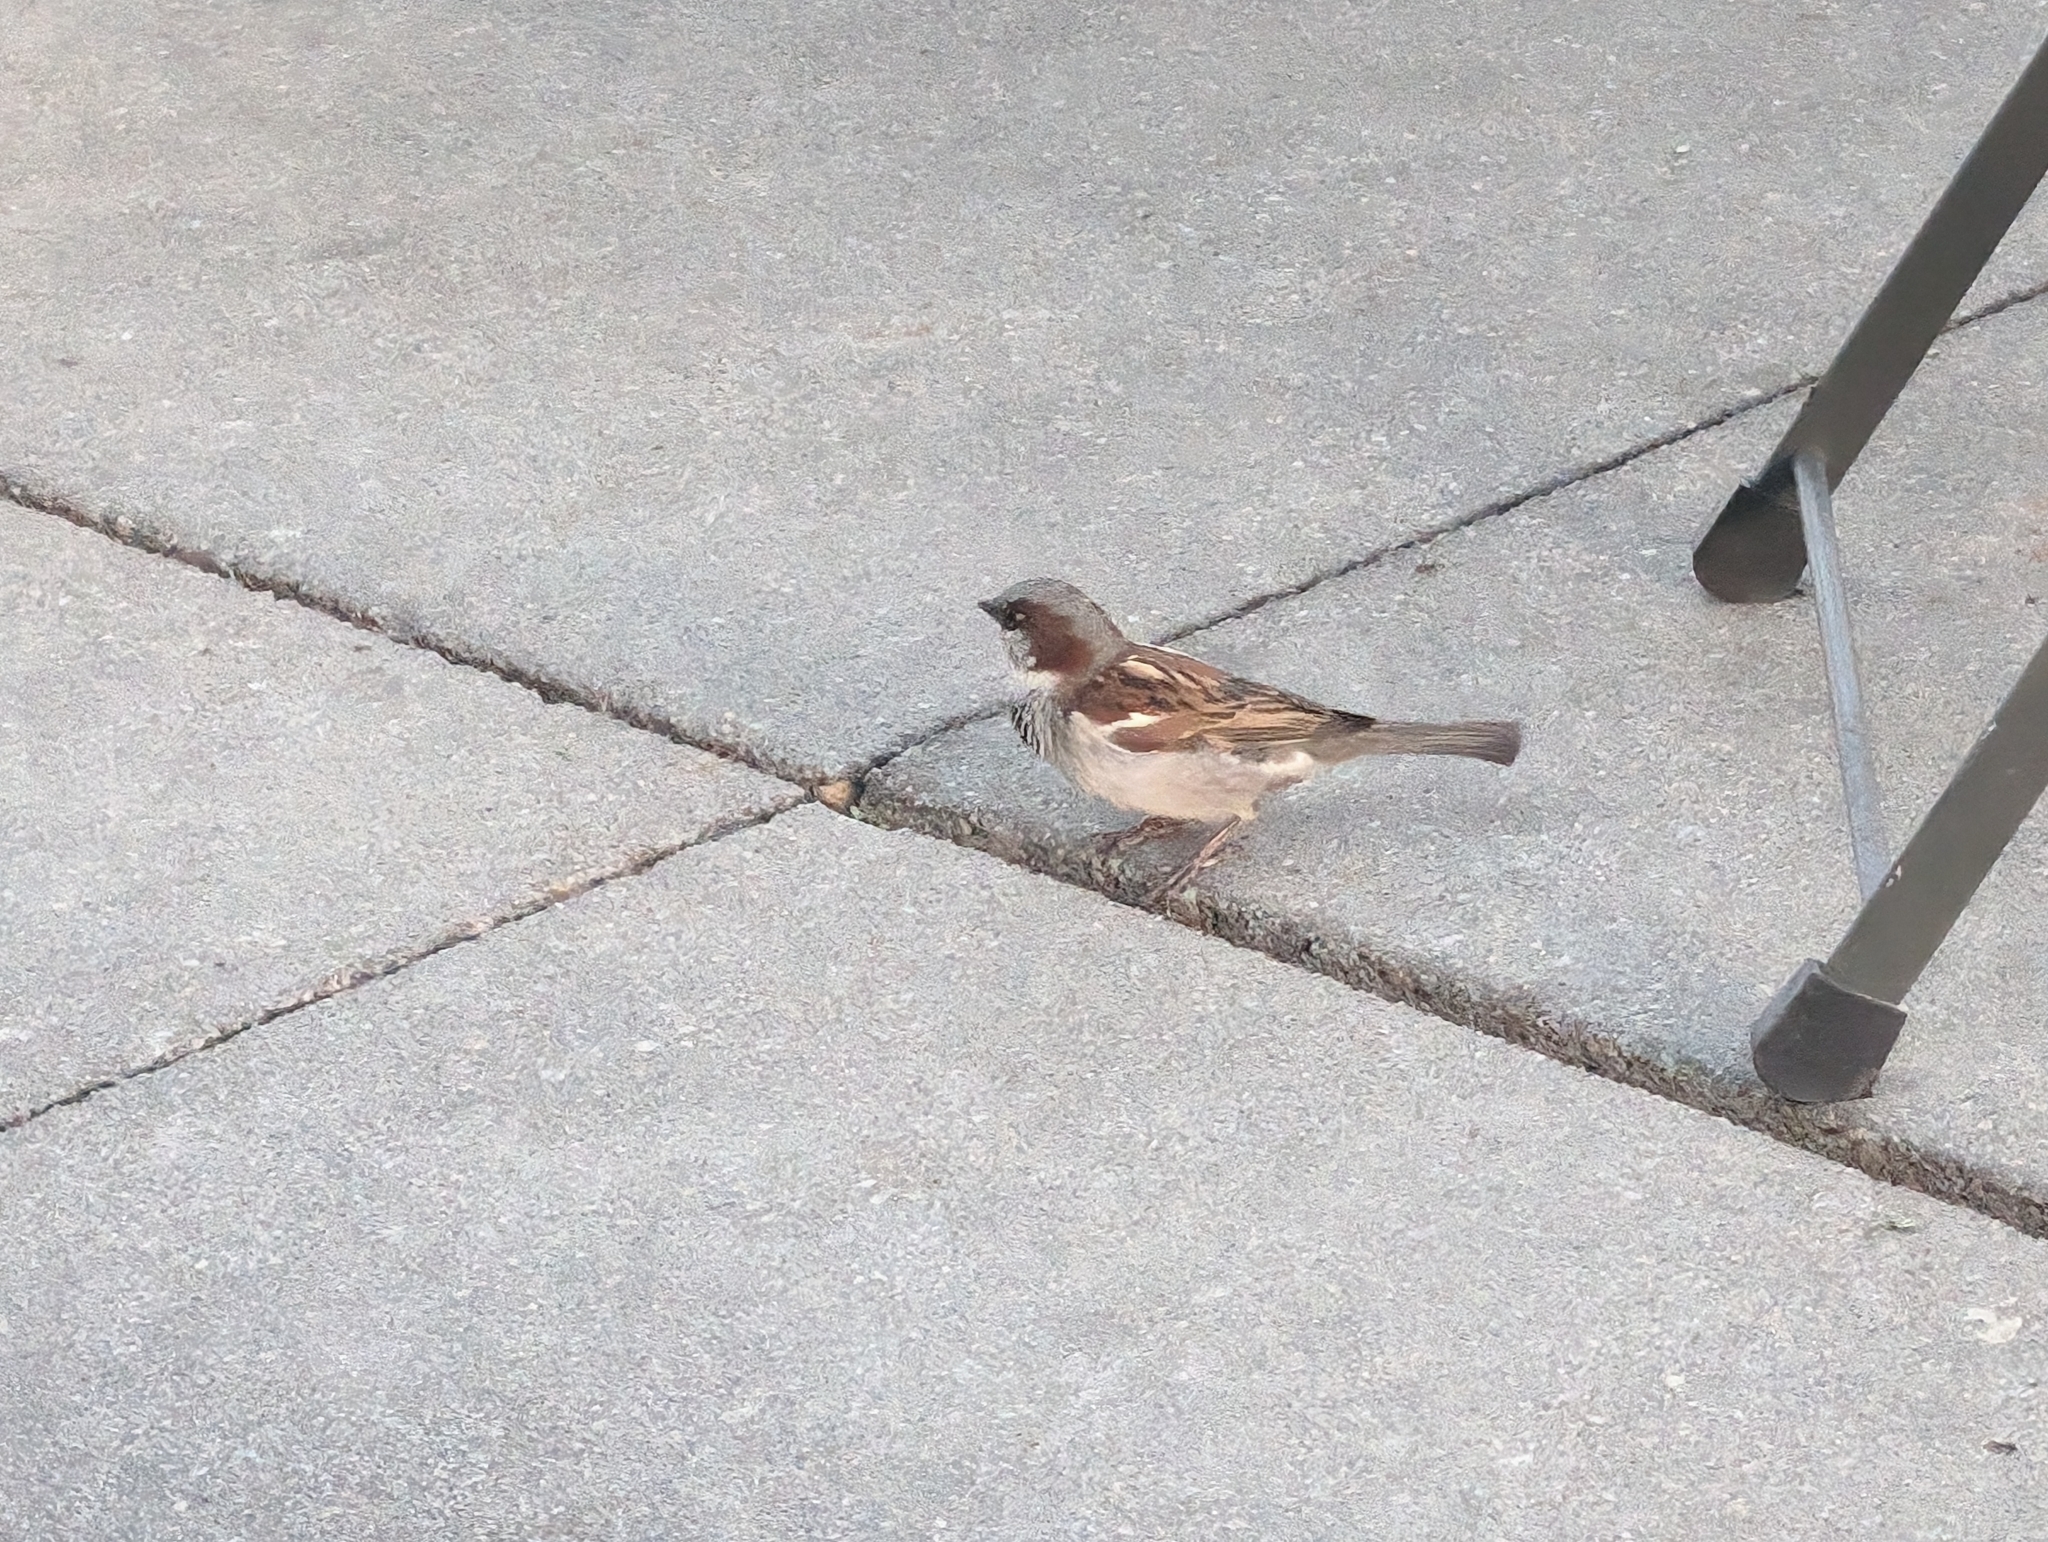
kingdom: Animalia
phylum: Chordata
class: Aves
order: Passeriformes
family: Passeridae
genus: Passer
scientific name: Passer domesticus
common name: House sparrow
